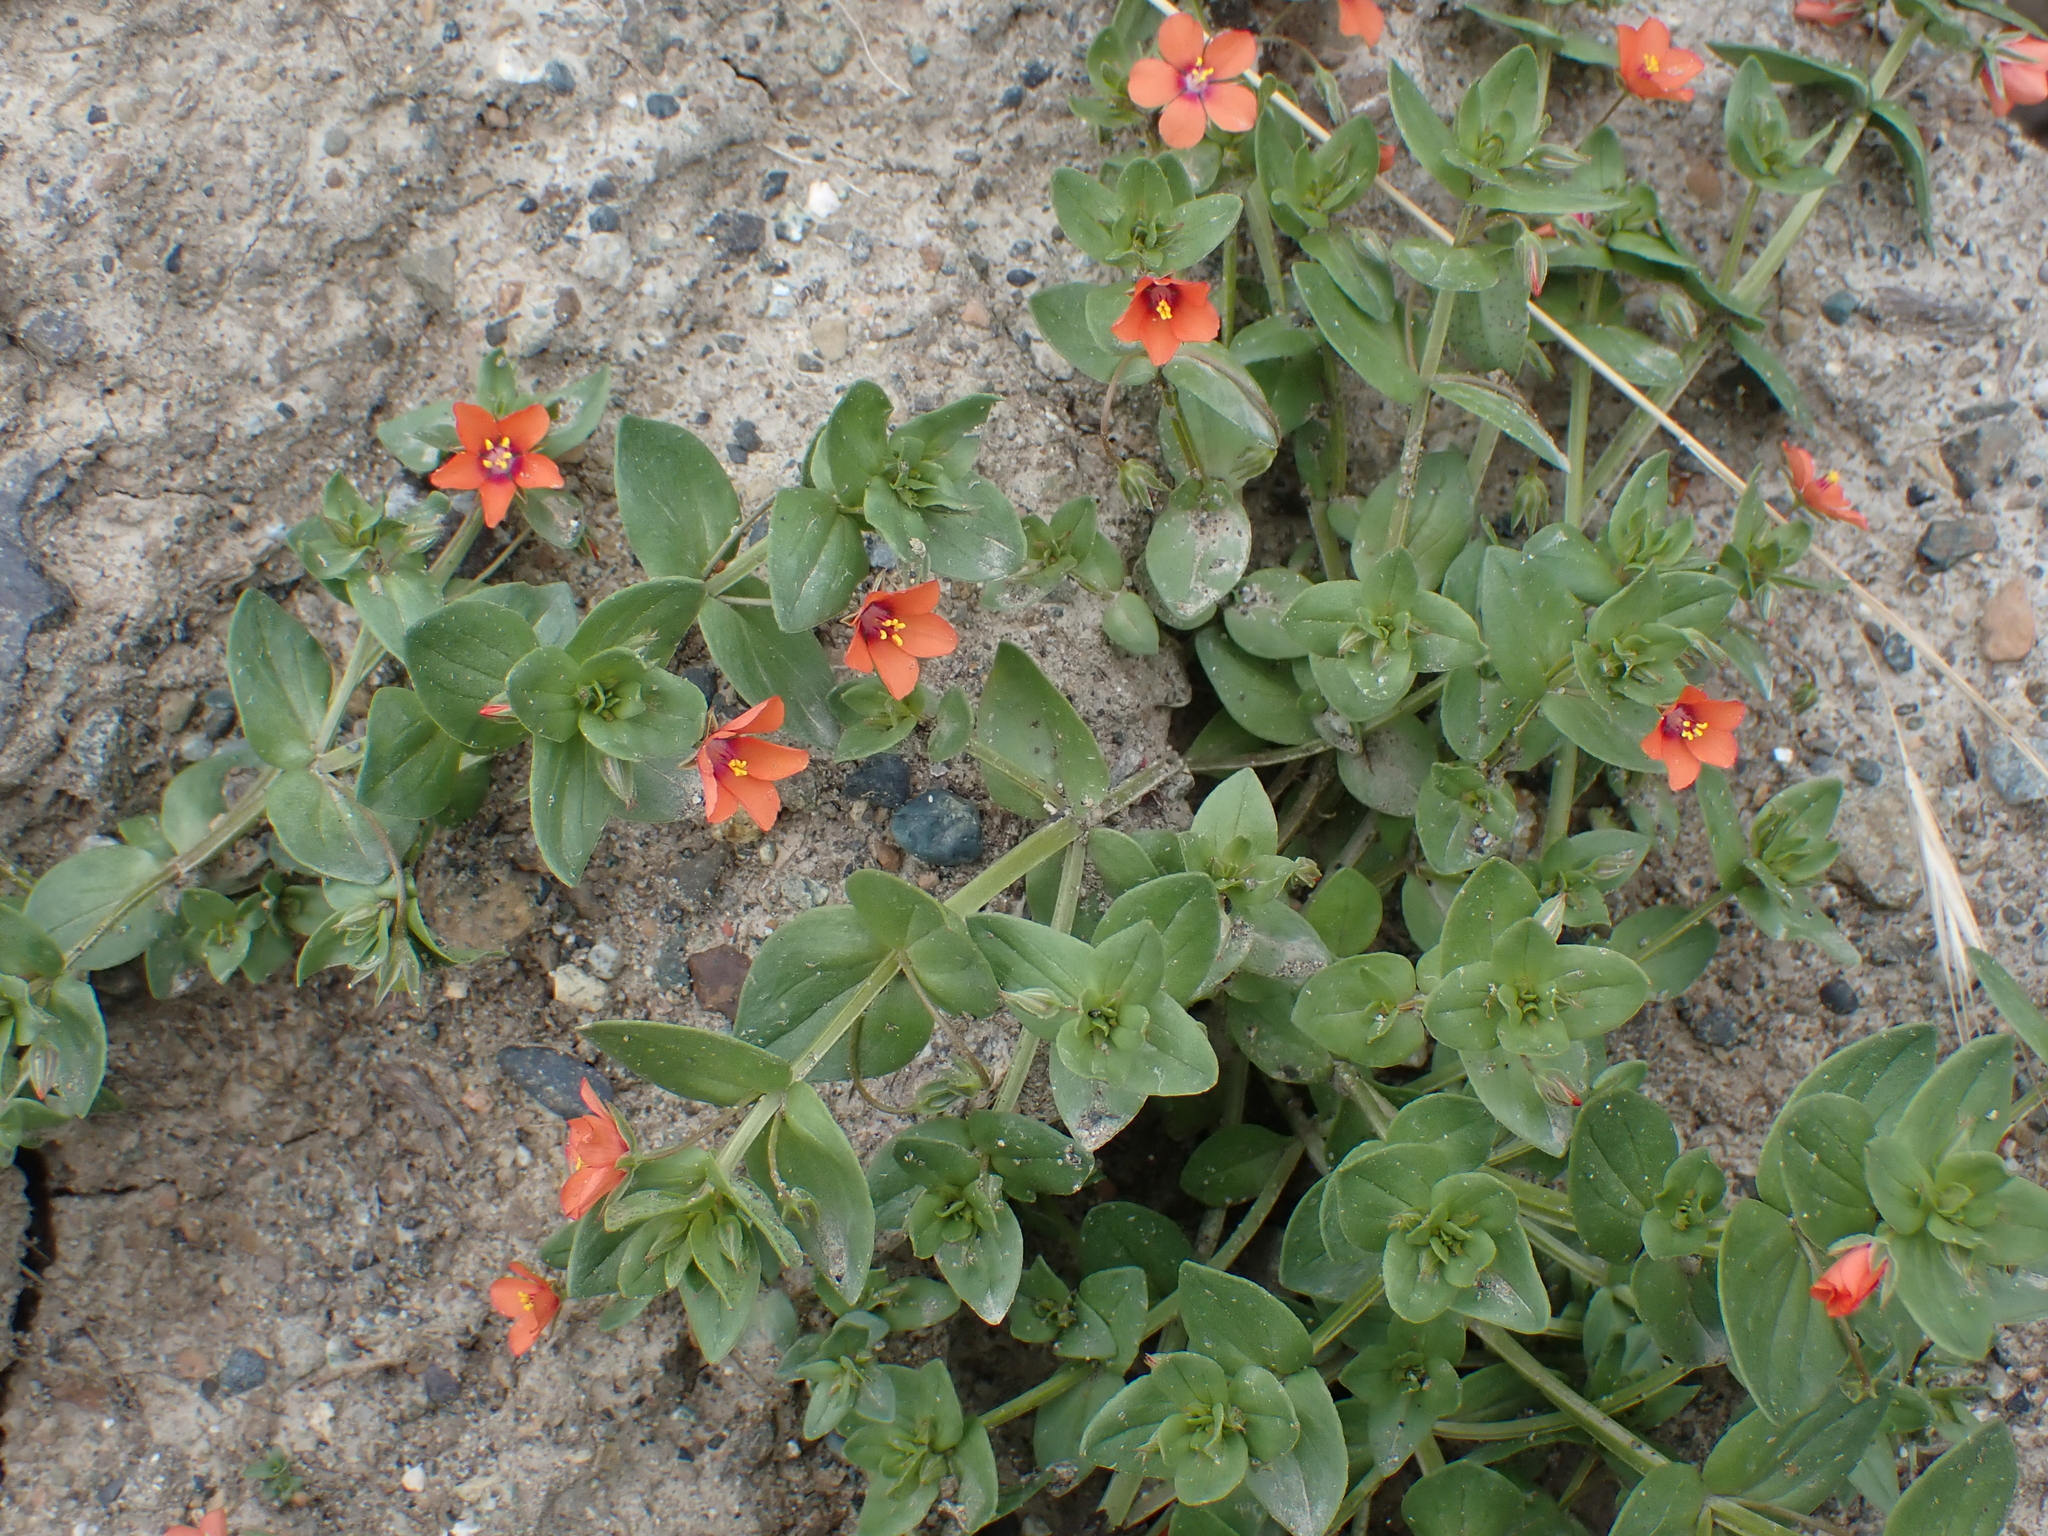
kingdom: Plantae
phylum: Tracheophyta
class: Magnoliopsida
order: Ericales
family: Primulaceae
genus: Lysimachia
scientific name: Lysimachia arvensis
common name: Scarlet pimpernel
